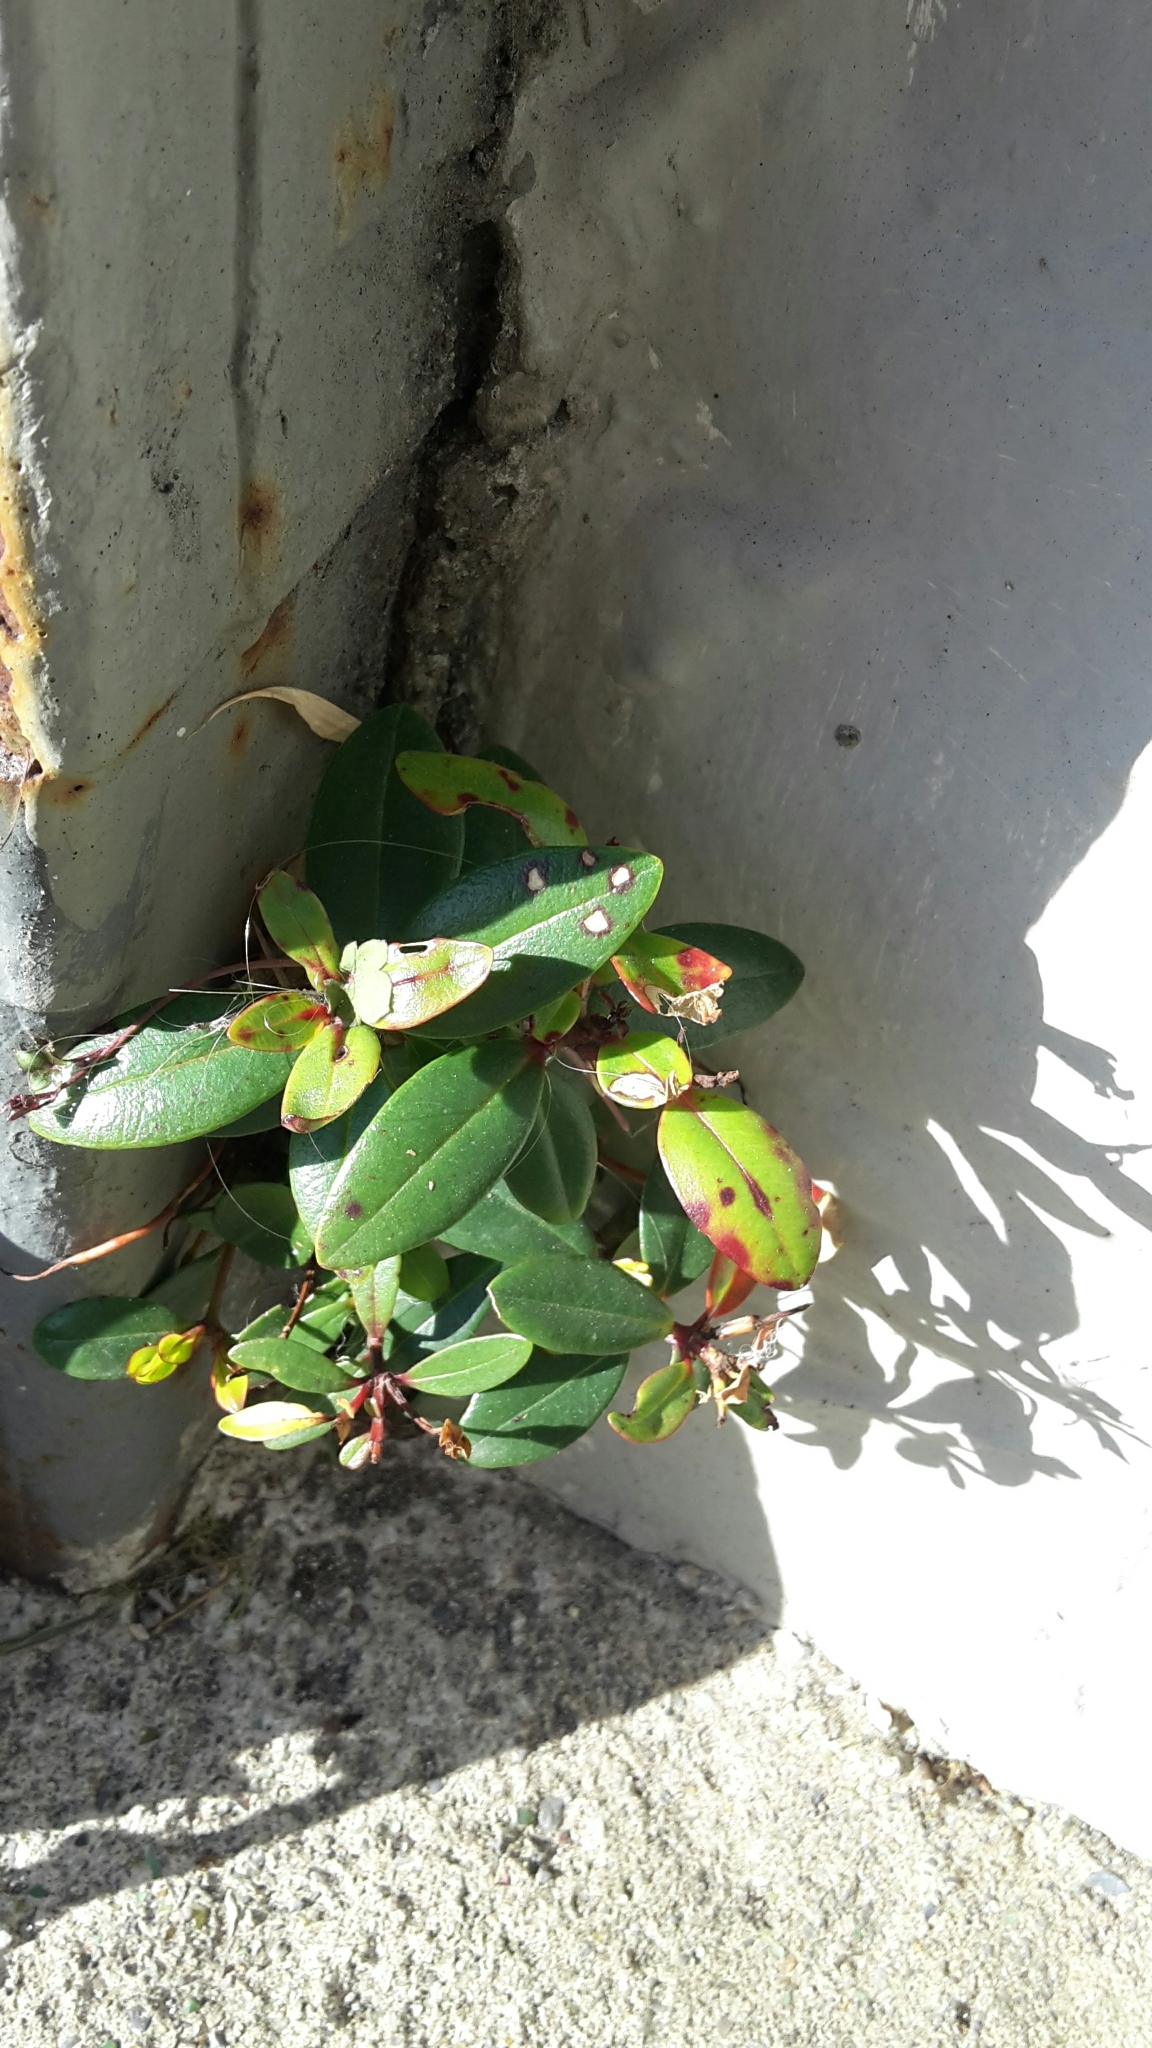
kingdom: Plantae
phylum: Tracheophyta
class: Magnoliopsida
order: Myrtales
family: Myrtaceae
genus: Metrosideros
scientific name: Metrosideros excelsa
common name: New zealand christmastree
